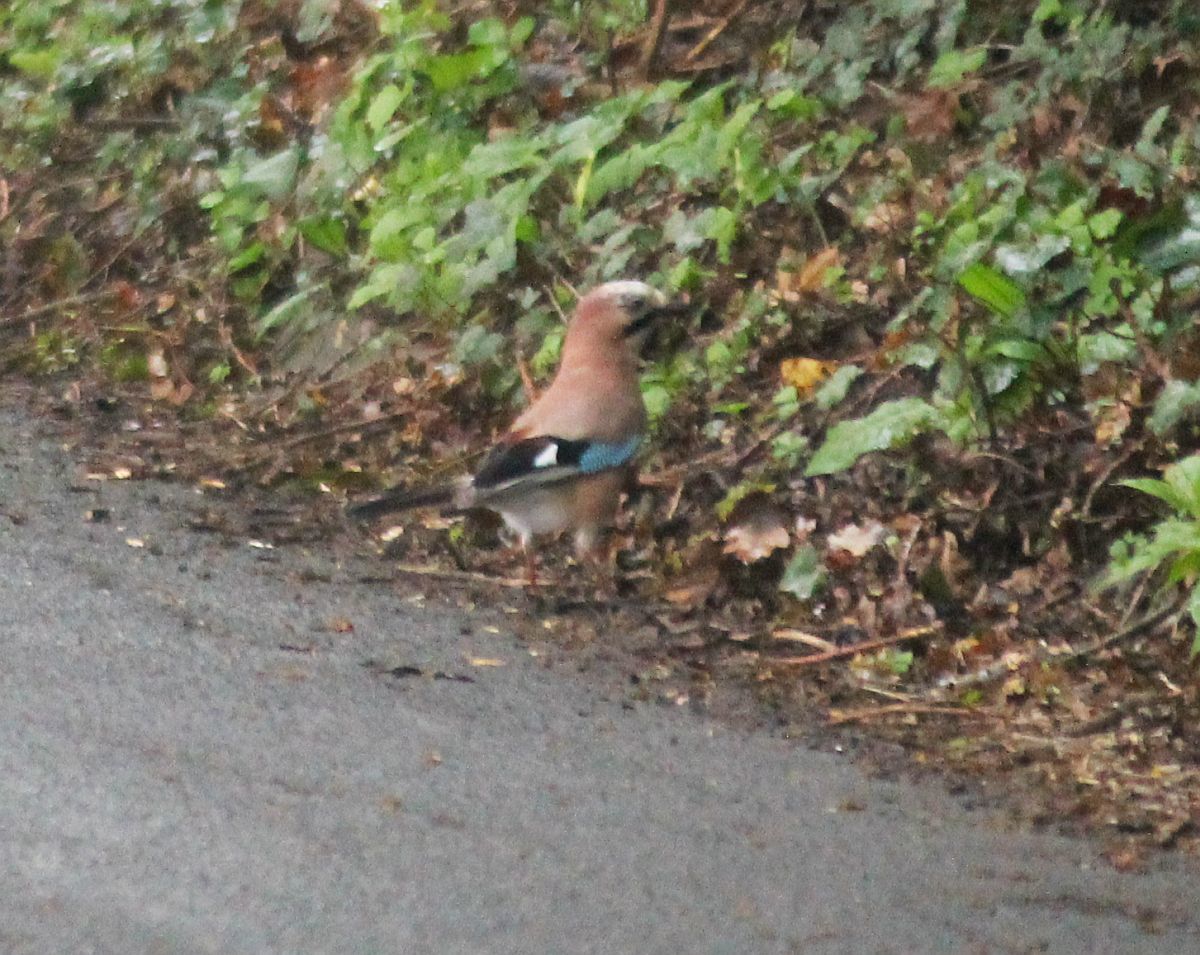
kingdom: Animalia
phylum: Chordata
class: Aves
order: Passeriformes
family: Corvidae
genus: Garrulus
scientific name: Garrulus glandarius
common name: Eurasian jay
